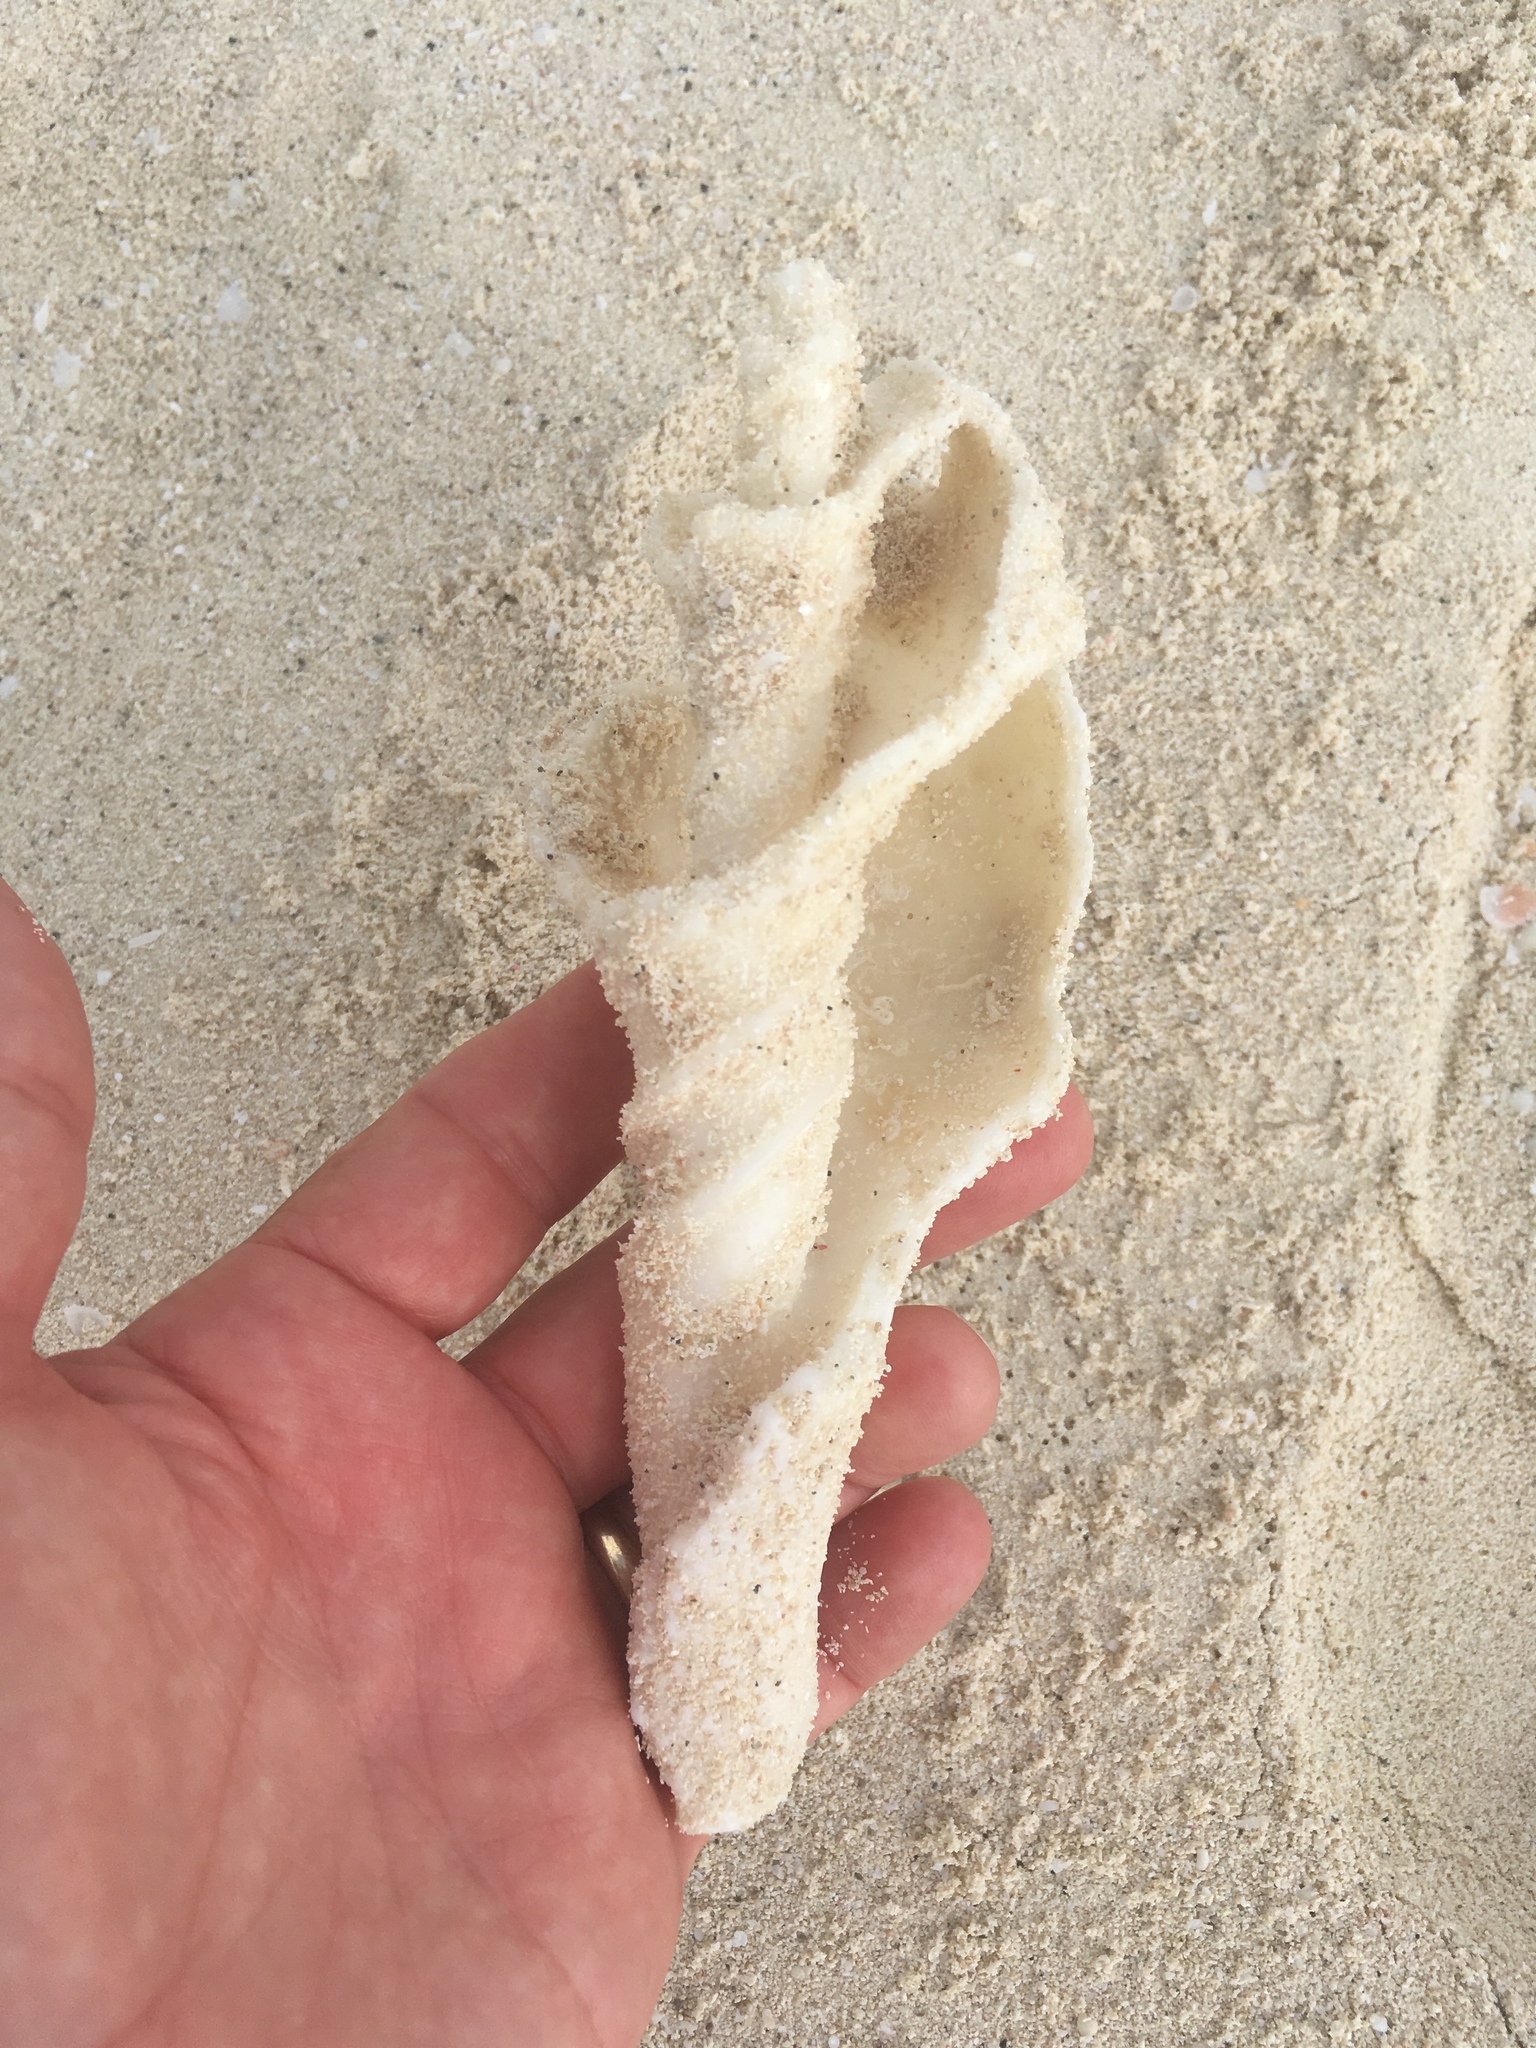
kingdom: Animalia
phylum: Mollusca
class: Gastropoda
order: Neogastropoda
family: Turbinellidae
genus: Turbinella
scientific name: Turbinella angulata
